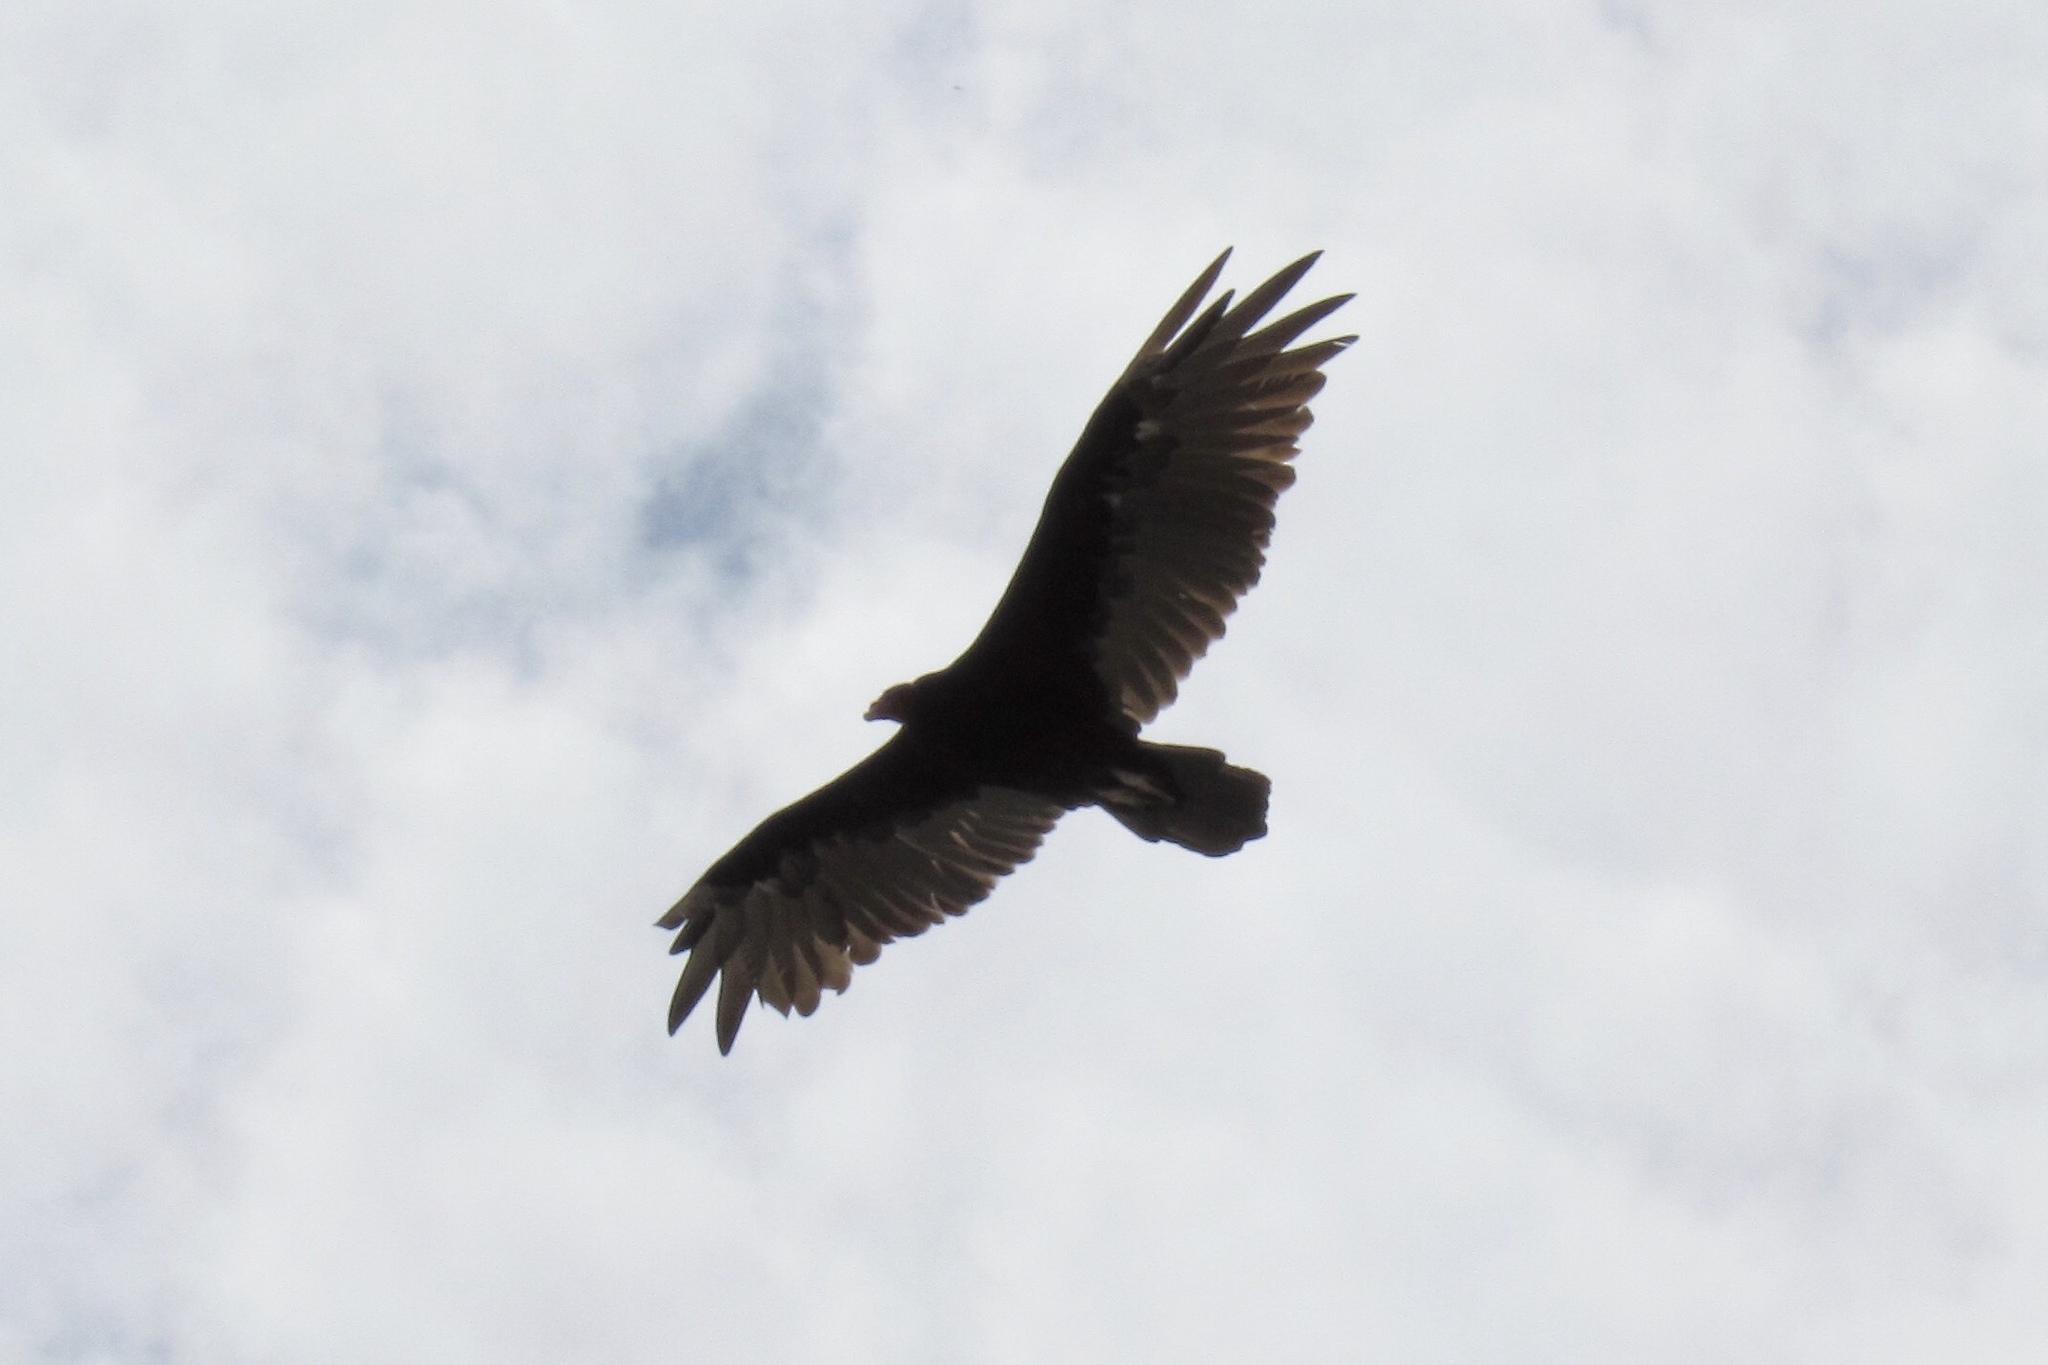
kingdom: Animalia
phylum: Chordata
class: Aves
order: Accipitriformes
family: Cathartidae
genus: Cathartes
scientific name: Cathartes aura
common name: Turkey vulture
